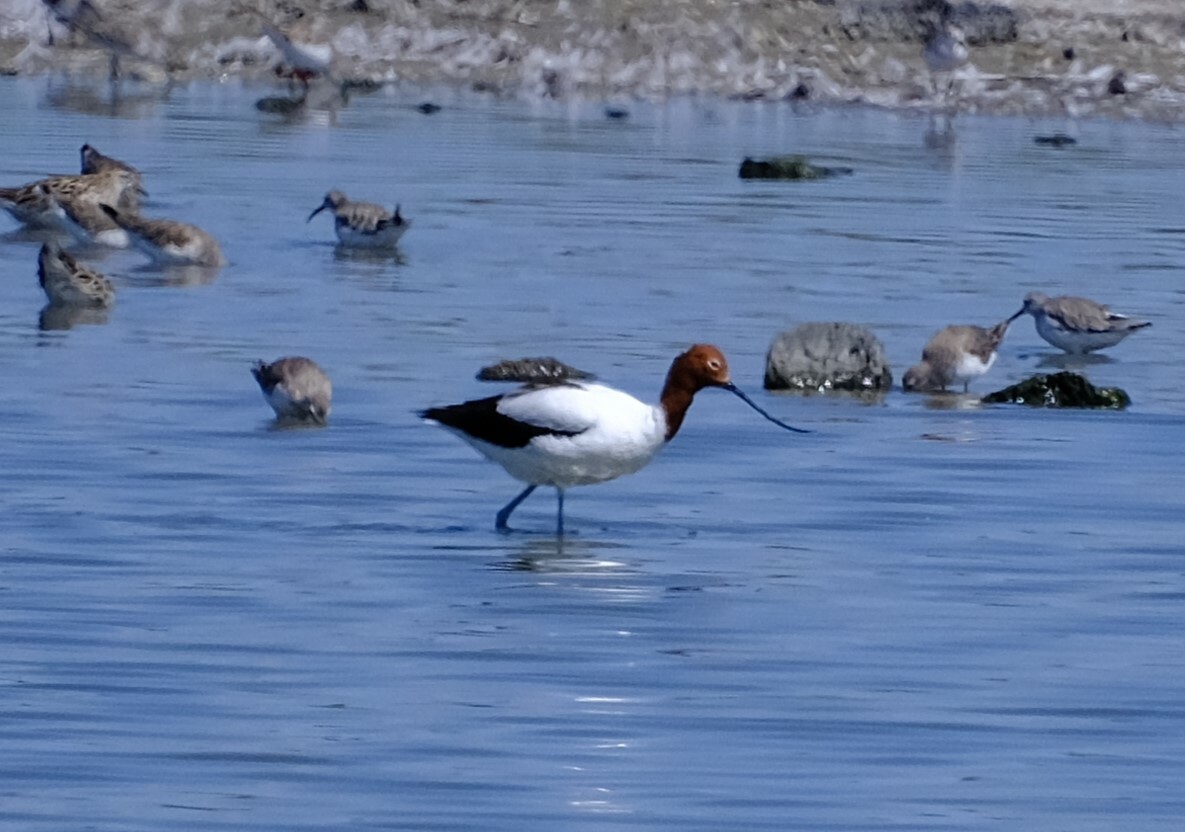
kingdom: Animalia
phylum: Chordata
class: Aves
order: Charadriiformes
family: Recurvirostridae
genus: Recurvirostra
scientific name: Recurvirostra novaehollandiae
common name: Red-necked avocet
